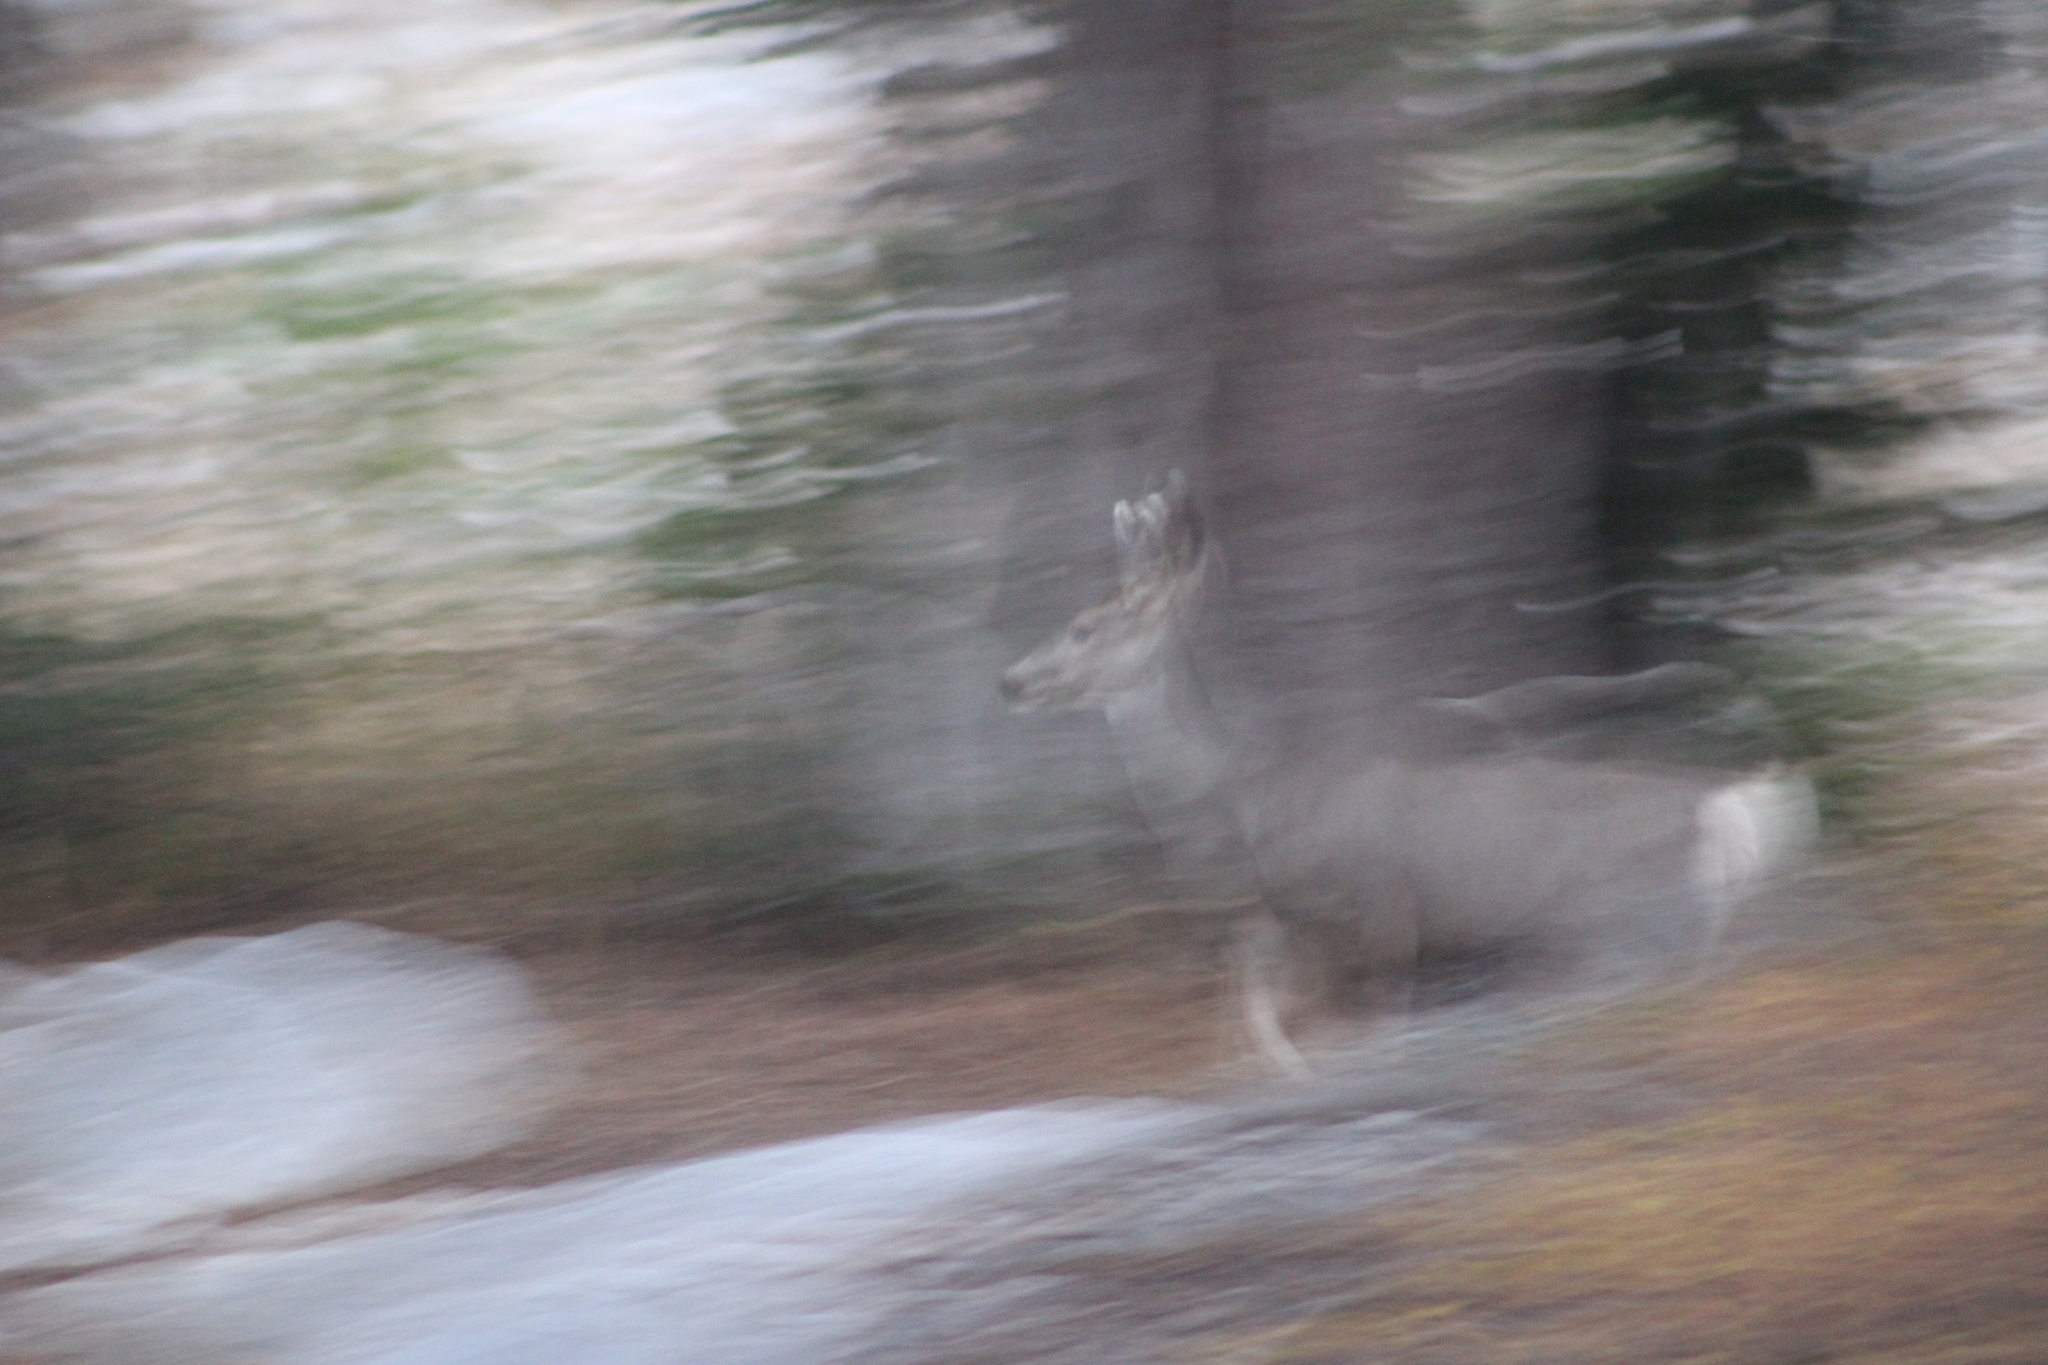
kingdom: Animalia
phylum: Chordata
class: Mammalia
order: Artiodactyla
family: Cervidae
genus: Odocoileus
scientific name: Odocoileus hemionus
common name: Mule deer
